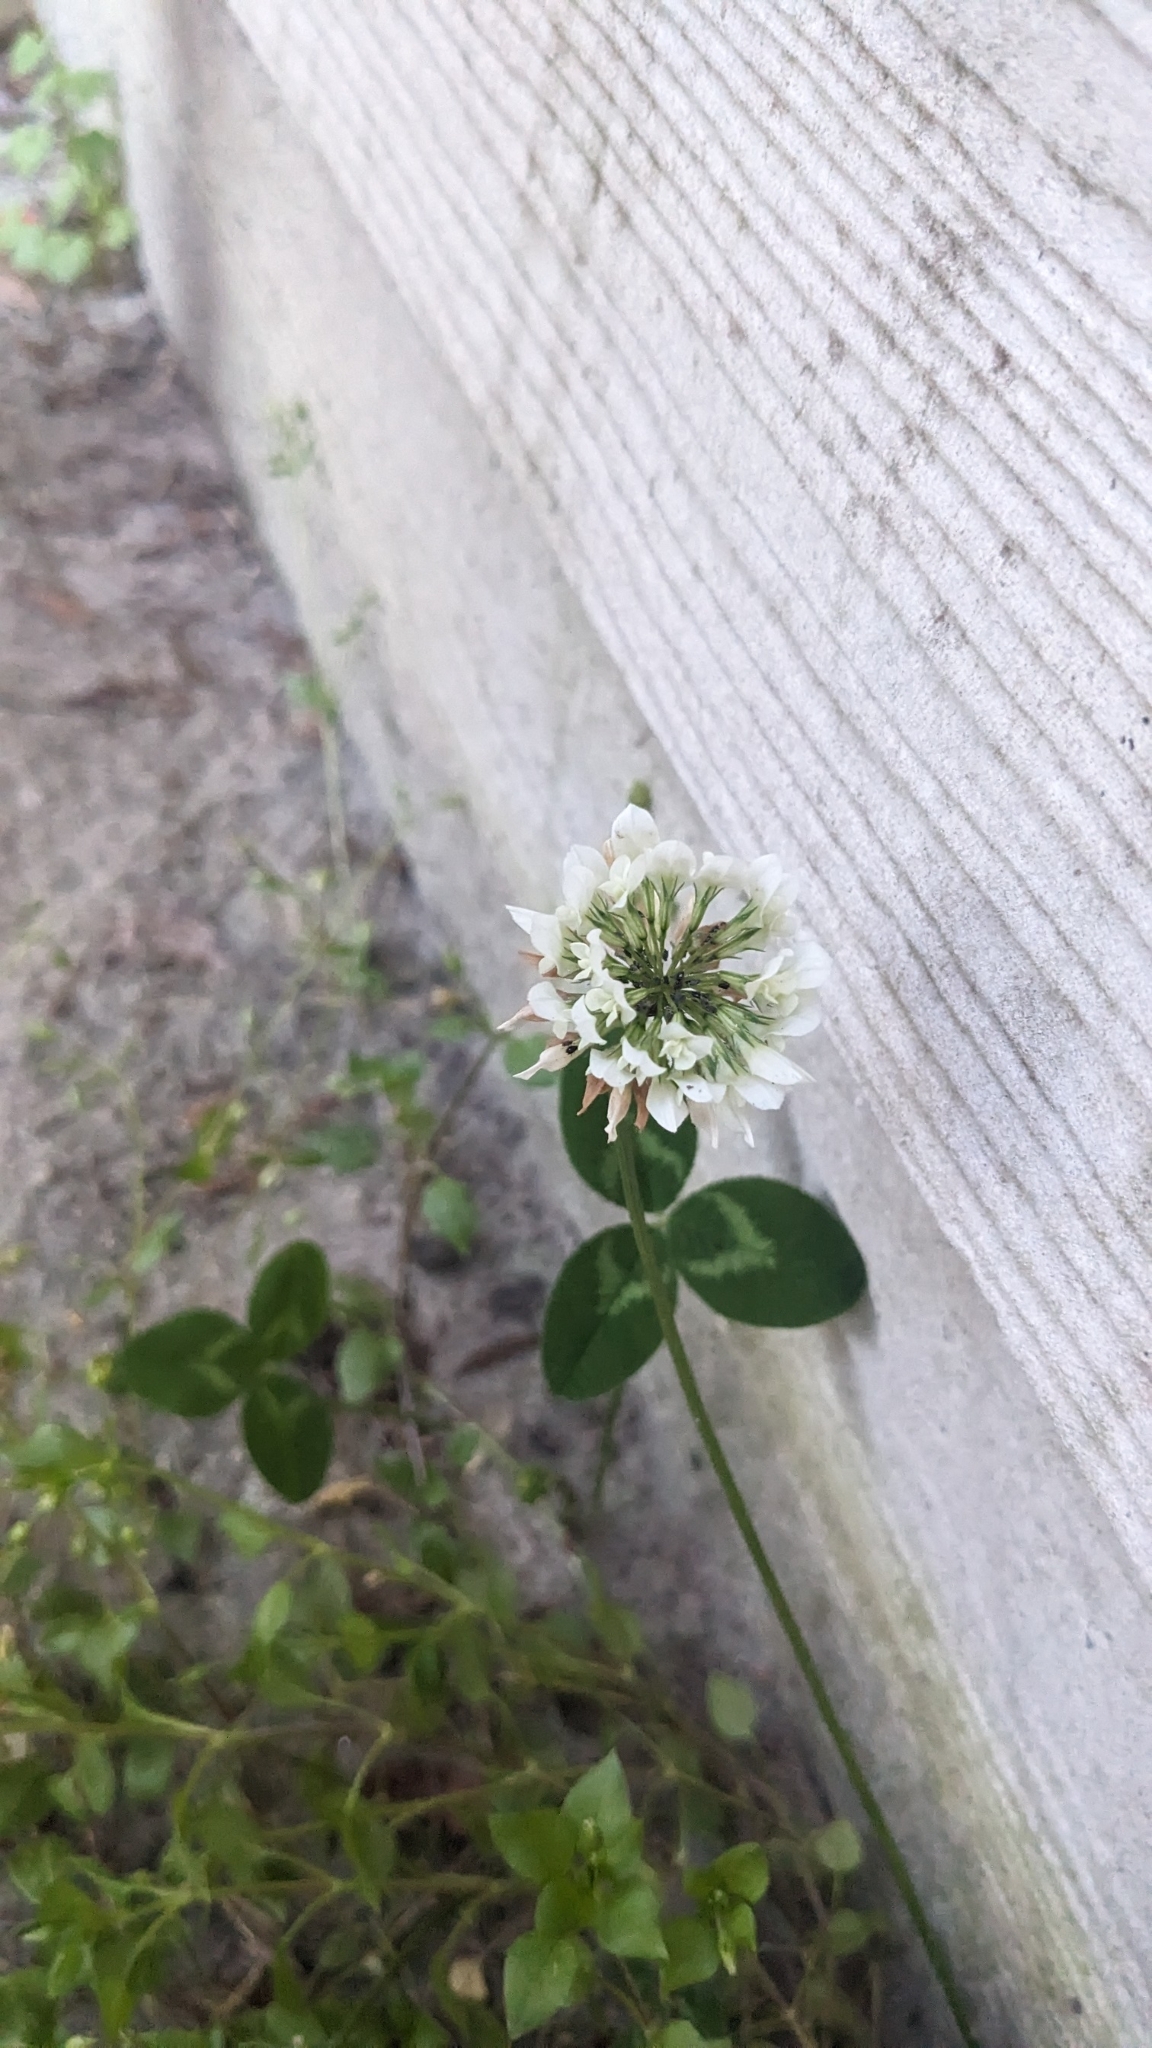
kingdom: Plantae
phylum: Tracheophyta
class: Magnoliopsida
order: Fabales
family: Fabaceae
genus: Trifolium
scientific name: Trifolium repens
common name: White clover
